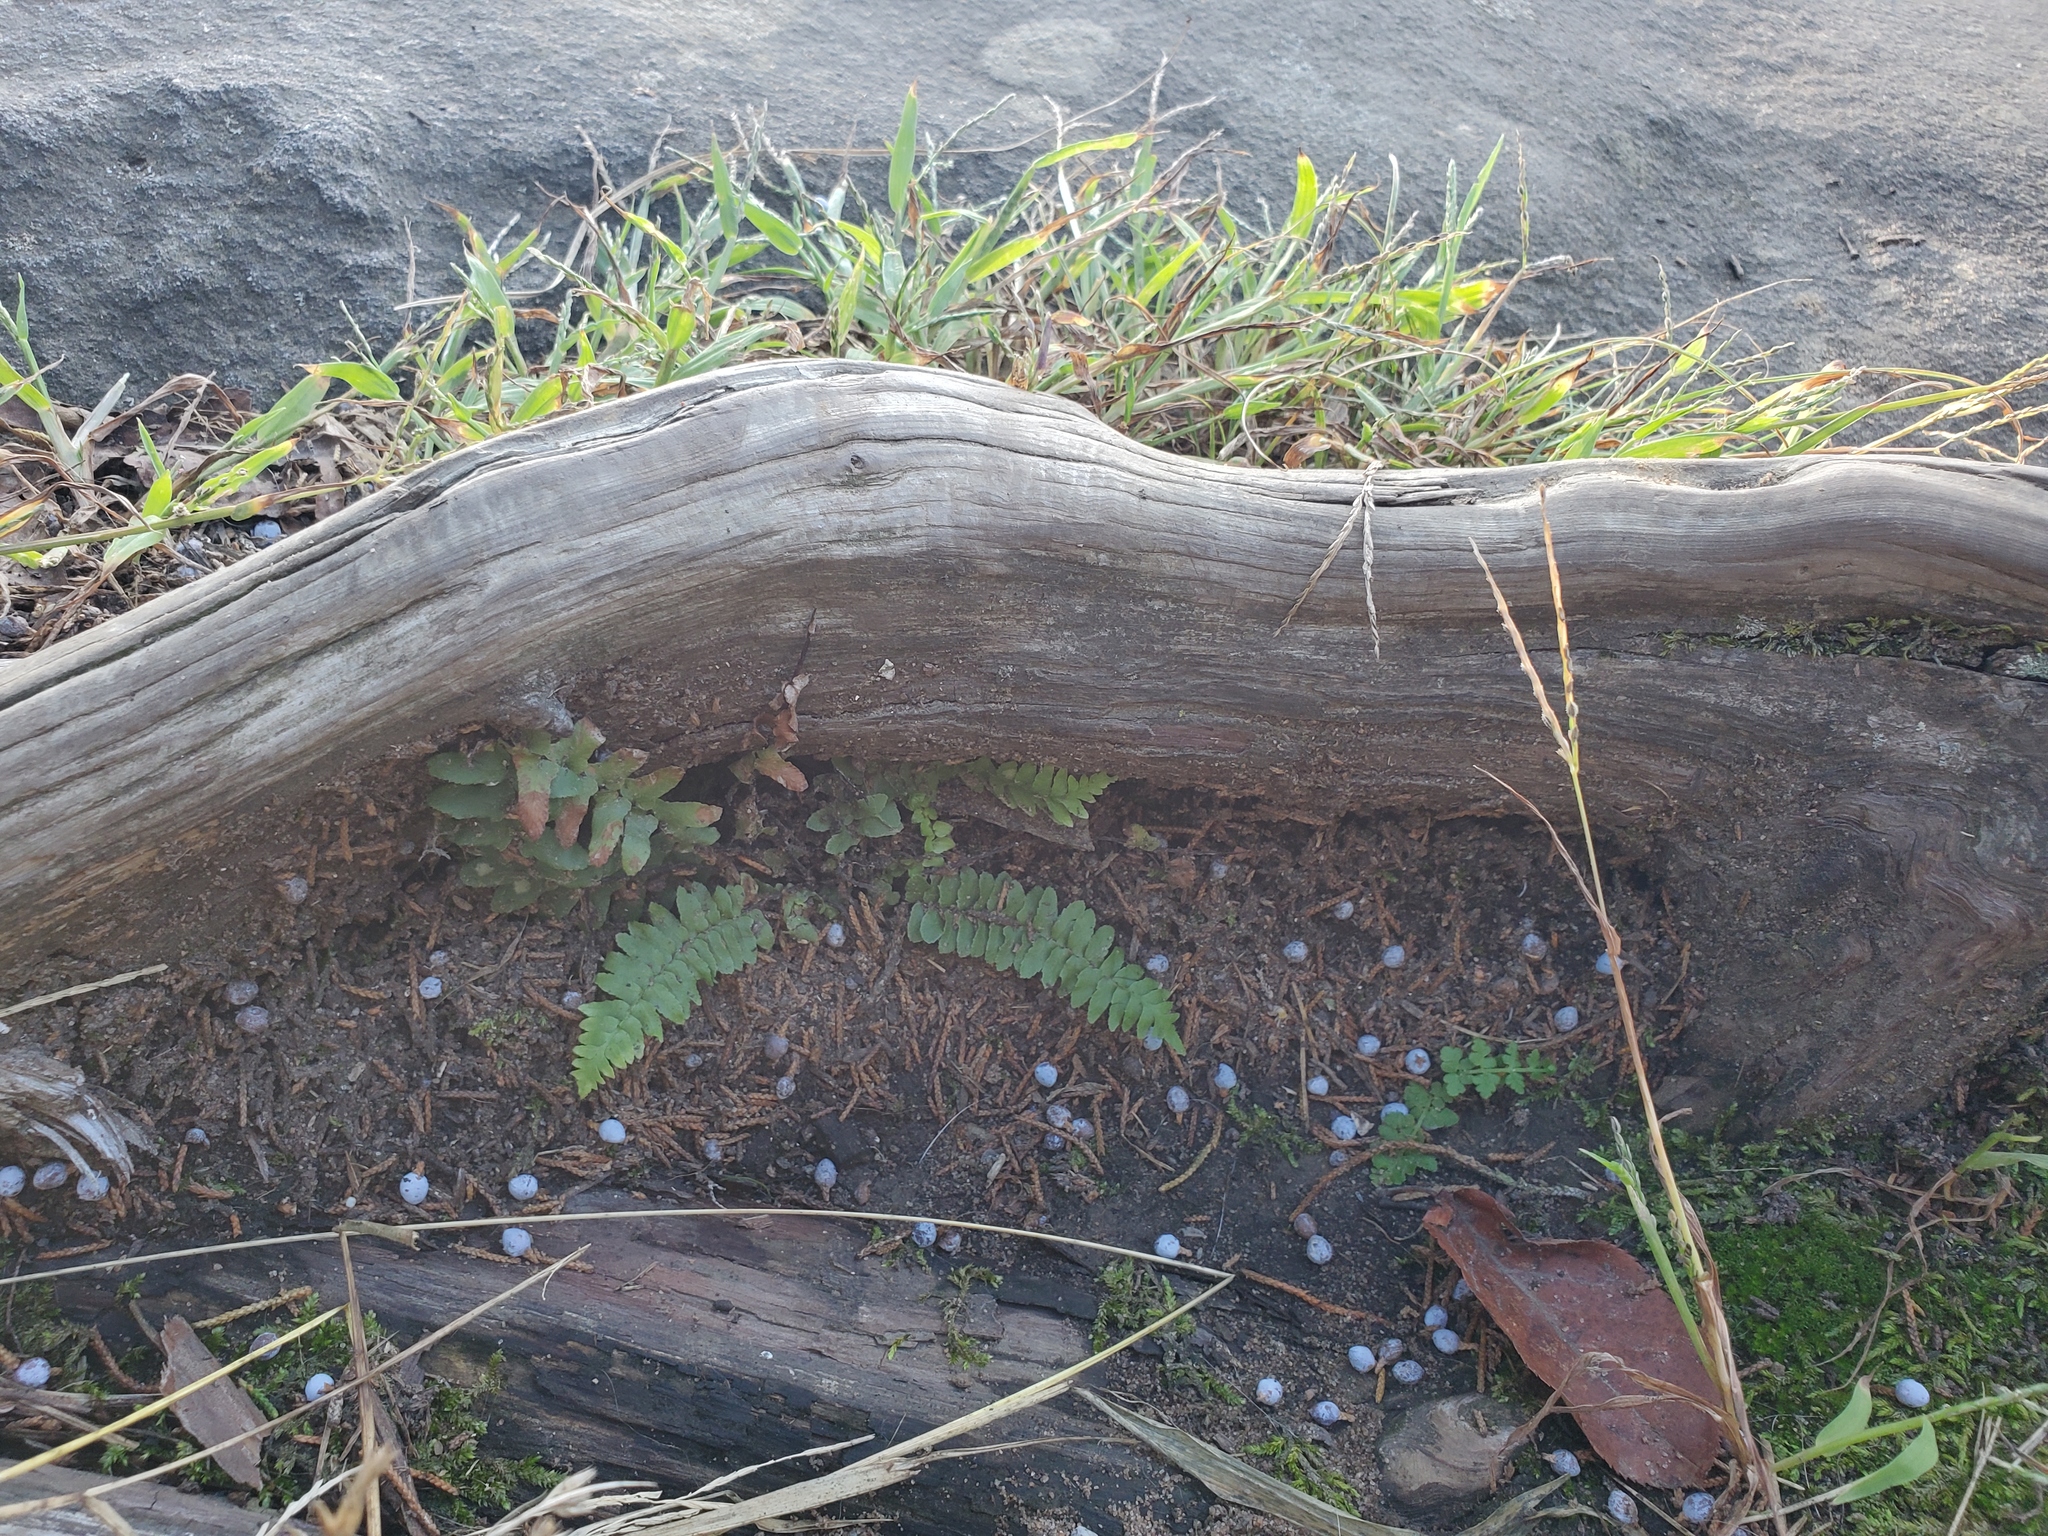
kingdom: Plantae
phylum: Tracheophyta
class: Polypodiopsida
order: Polypodiales
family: Aspleniaceae
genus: Asplenium
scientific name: Asplenium platyneuron
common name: Ebony spleenwort
